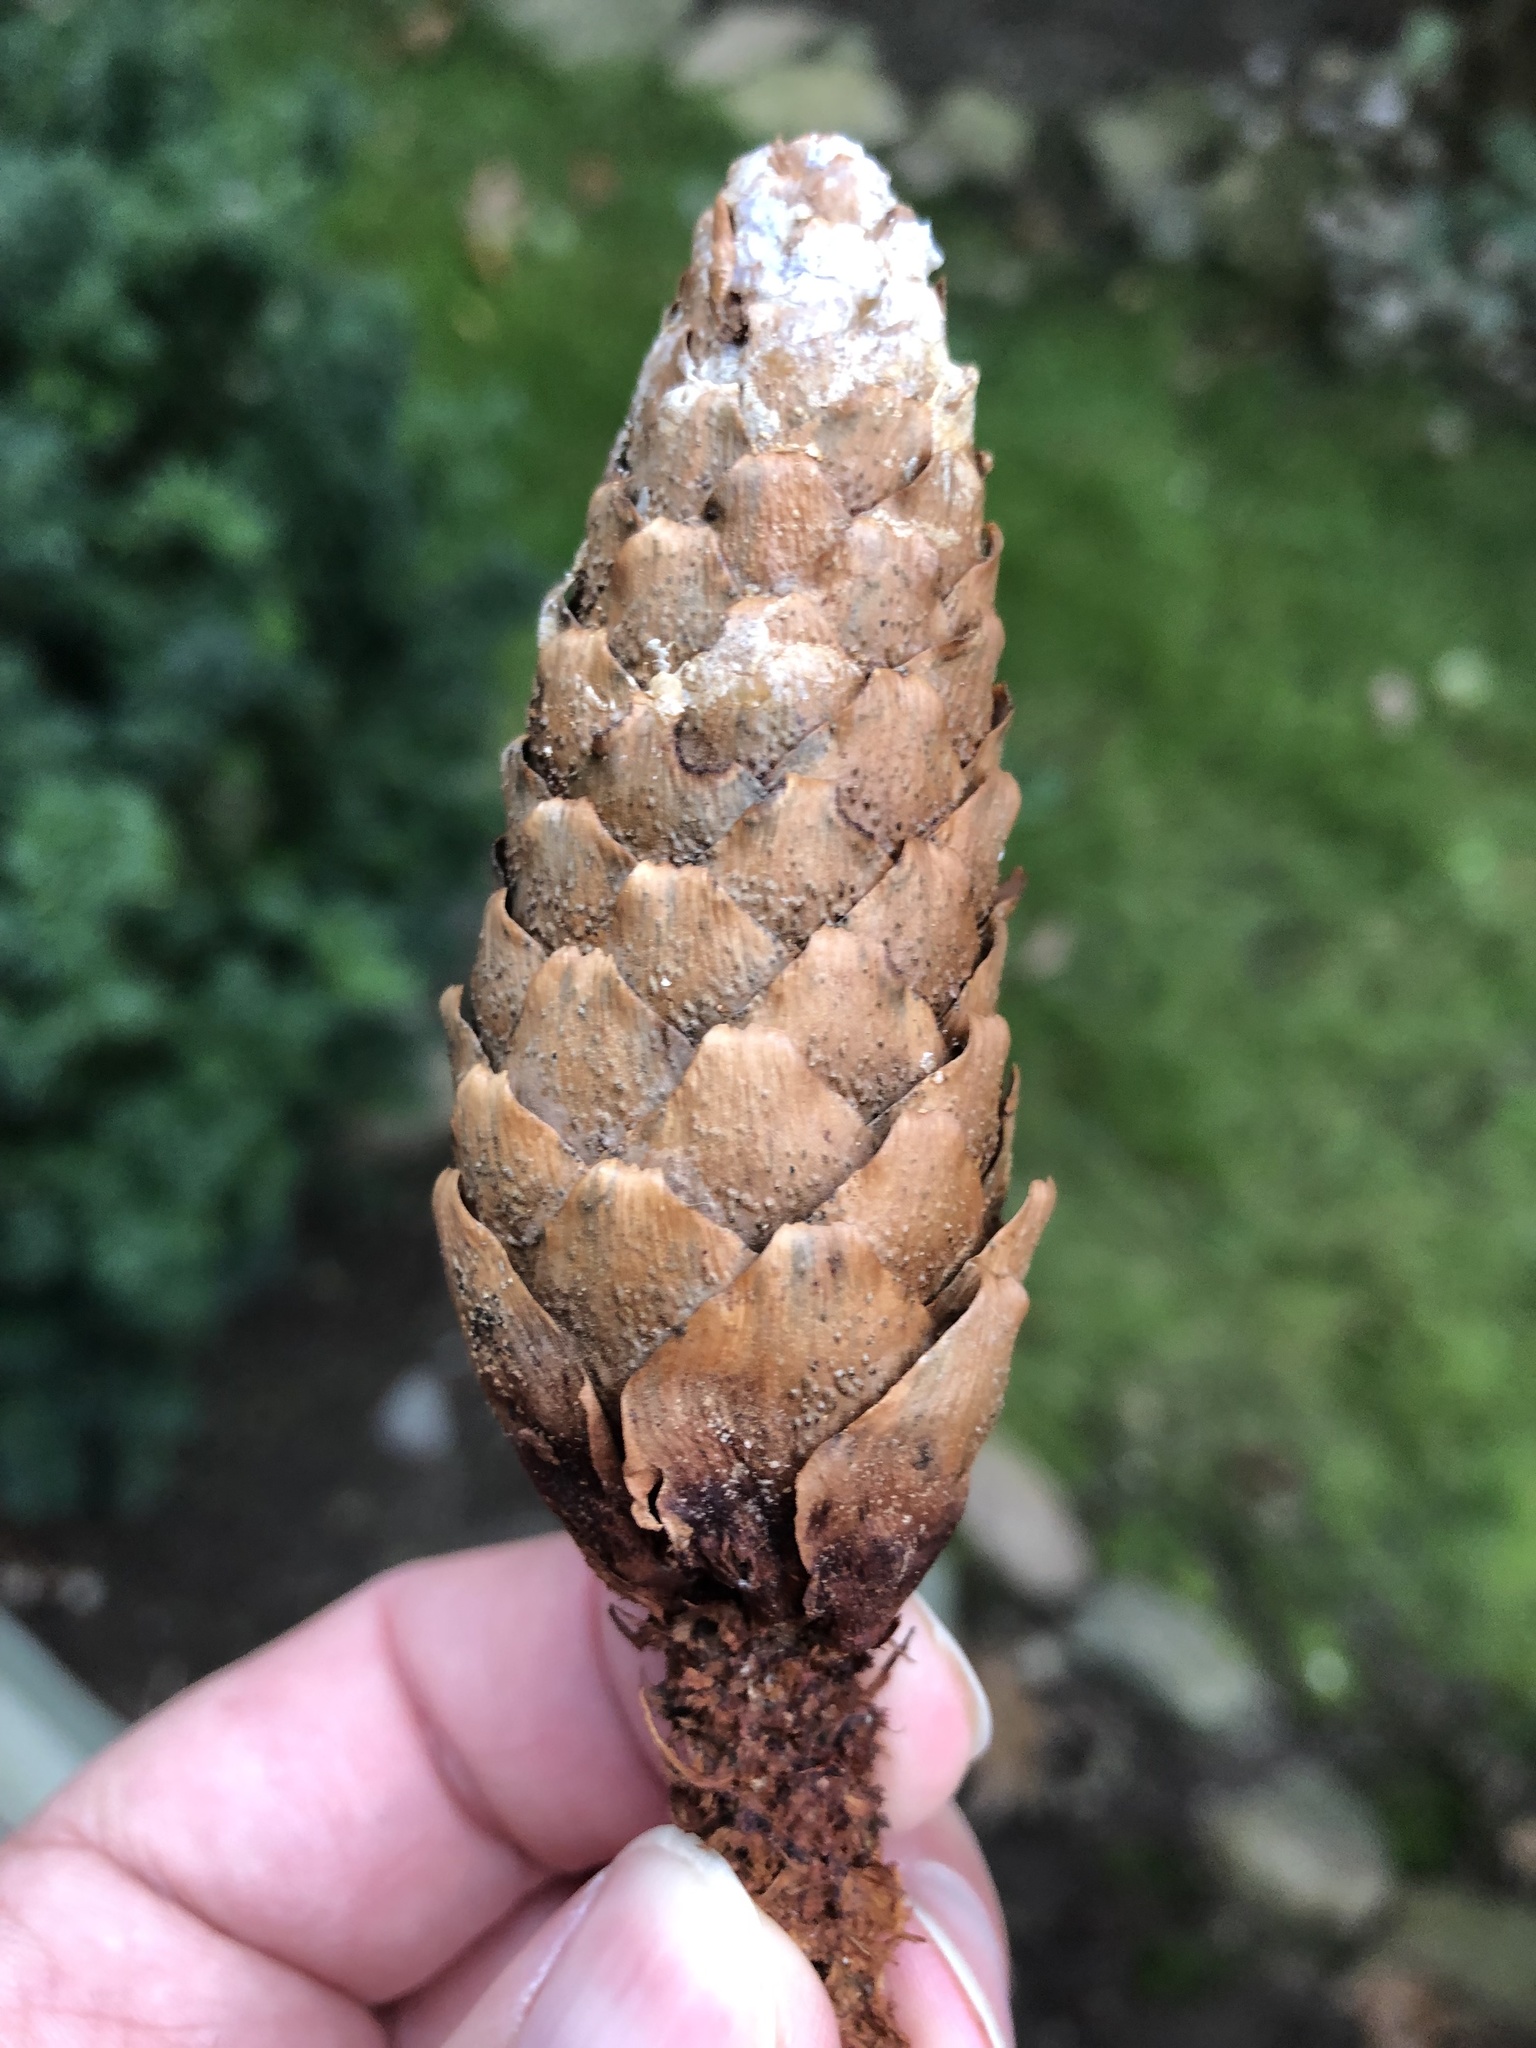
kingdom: Plantae
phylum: Tracheophyta
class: Pinopsida
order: Pinales
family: Pinaceae
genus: Picea
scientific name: Picea abies
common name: Norway spruce
